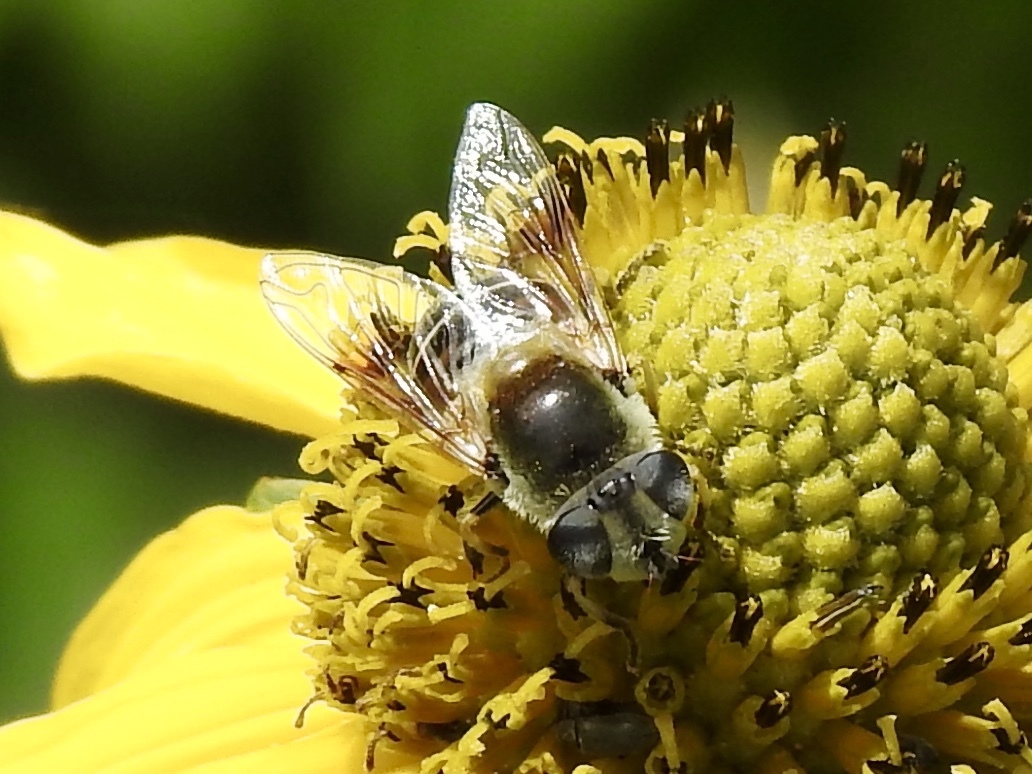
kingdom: Animalia
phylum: Arthropoda
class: Insecta
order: Diptera
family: Syrphidae
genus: Eristalis
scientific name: Eristalis stipator
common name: Yellow-shouldered drone fly
